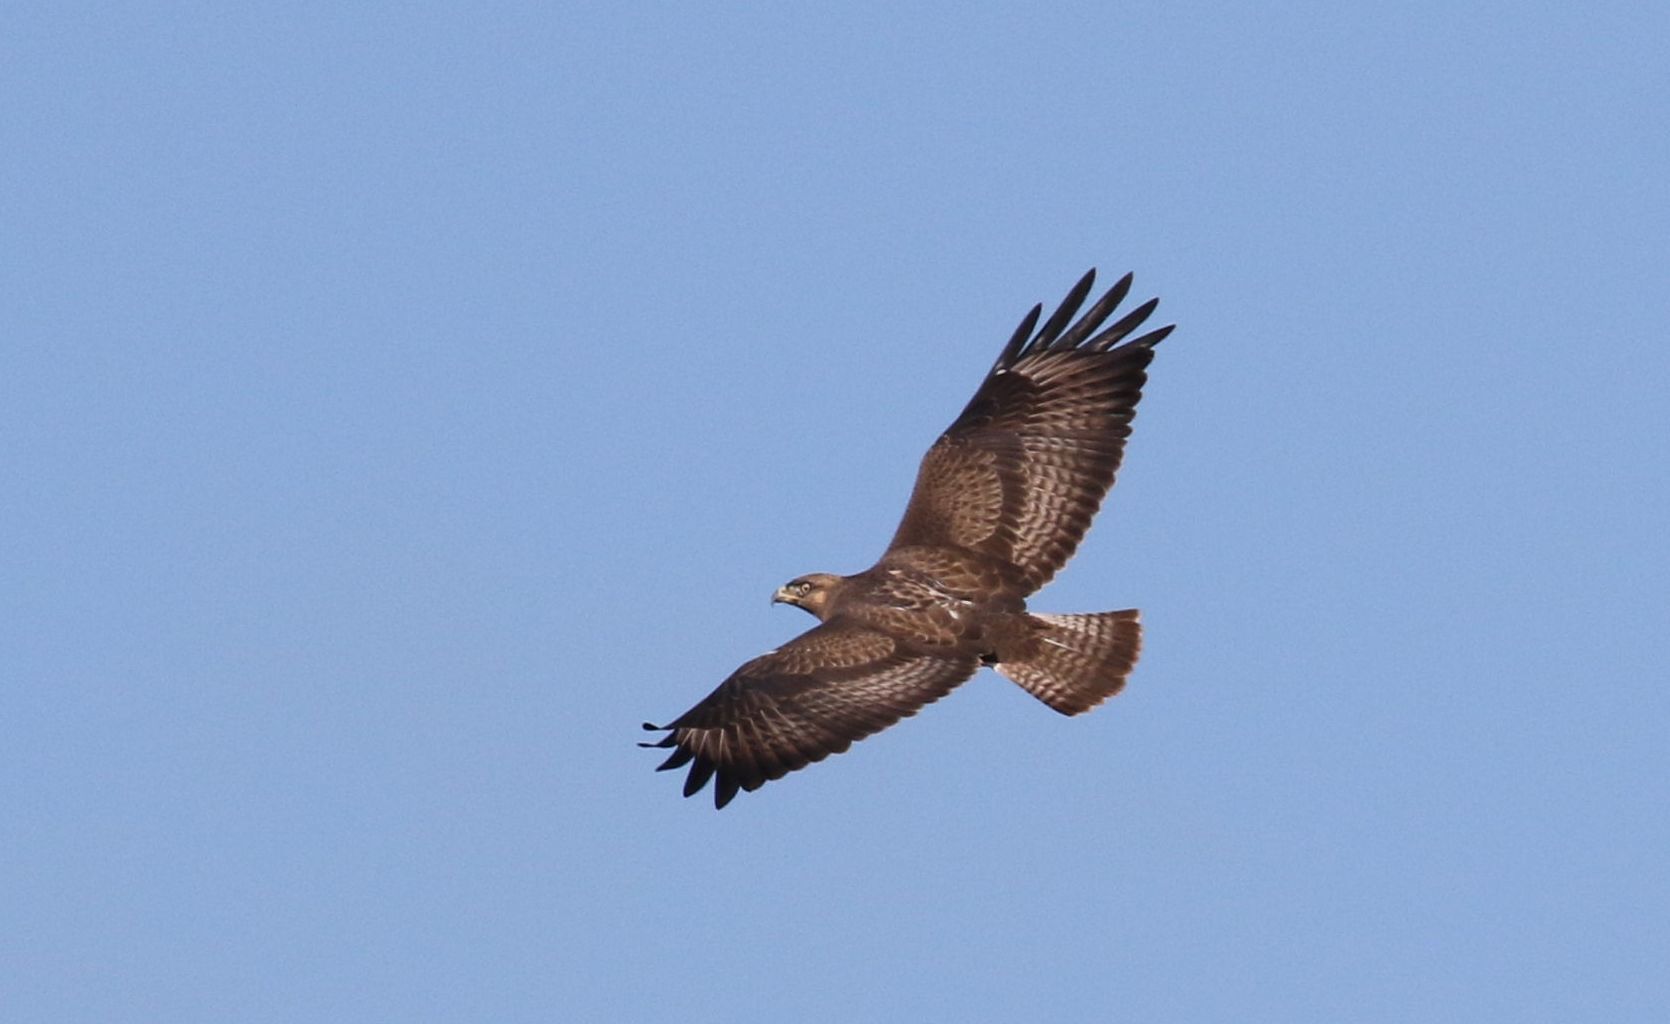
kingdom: Animalia
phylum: Chordata
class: Aves
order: Accipitriformes
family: Accipitridae
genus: Buteo
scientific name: Buteo buteo
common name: Common buzzard
